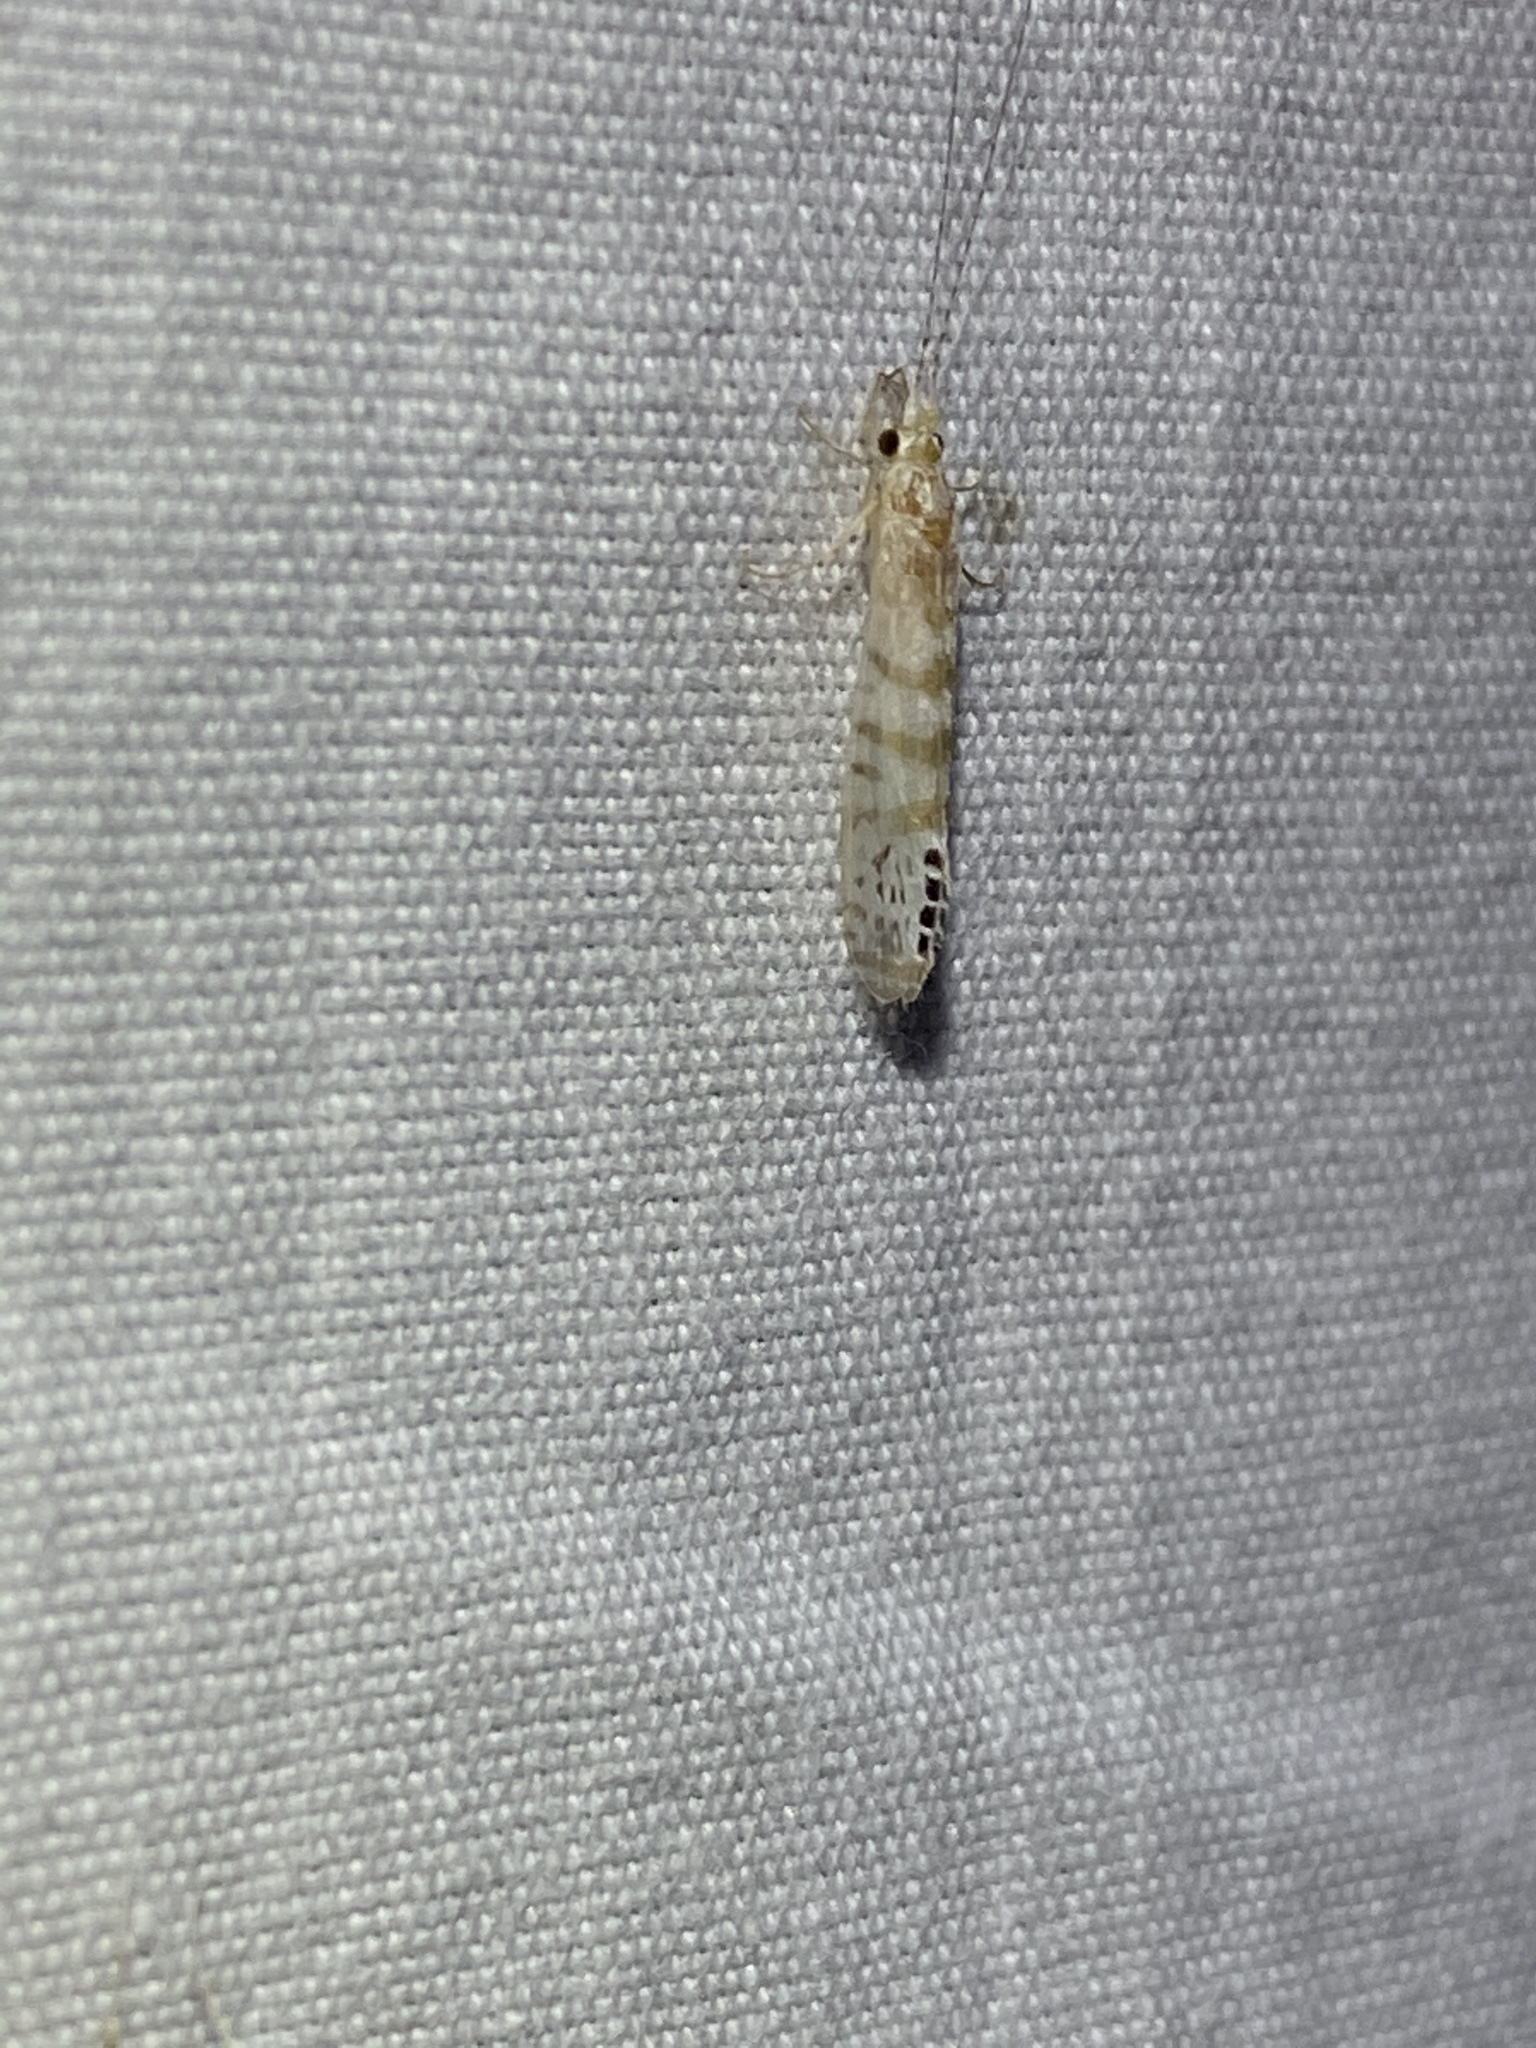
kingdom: Animalia
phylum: Arthropoda
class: Insecta
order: Trichoptera
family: Leptoceridae
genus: Nectopsyche
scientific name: Nectopsyche exquisita
